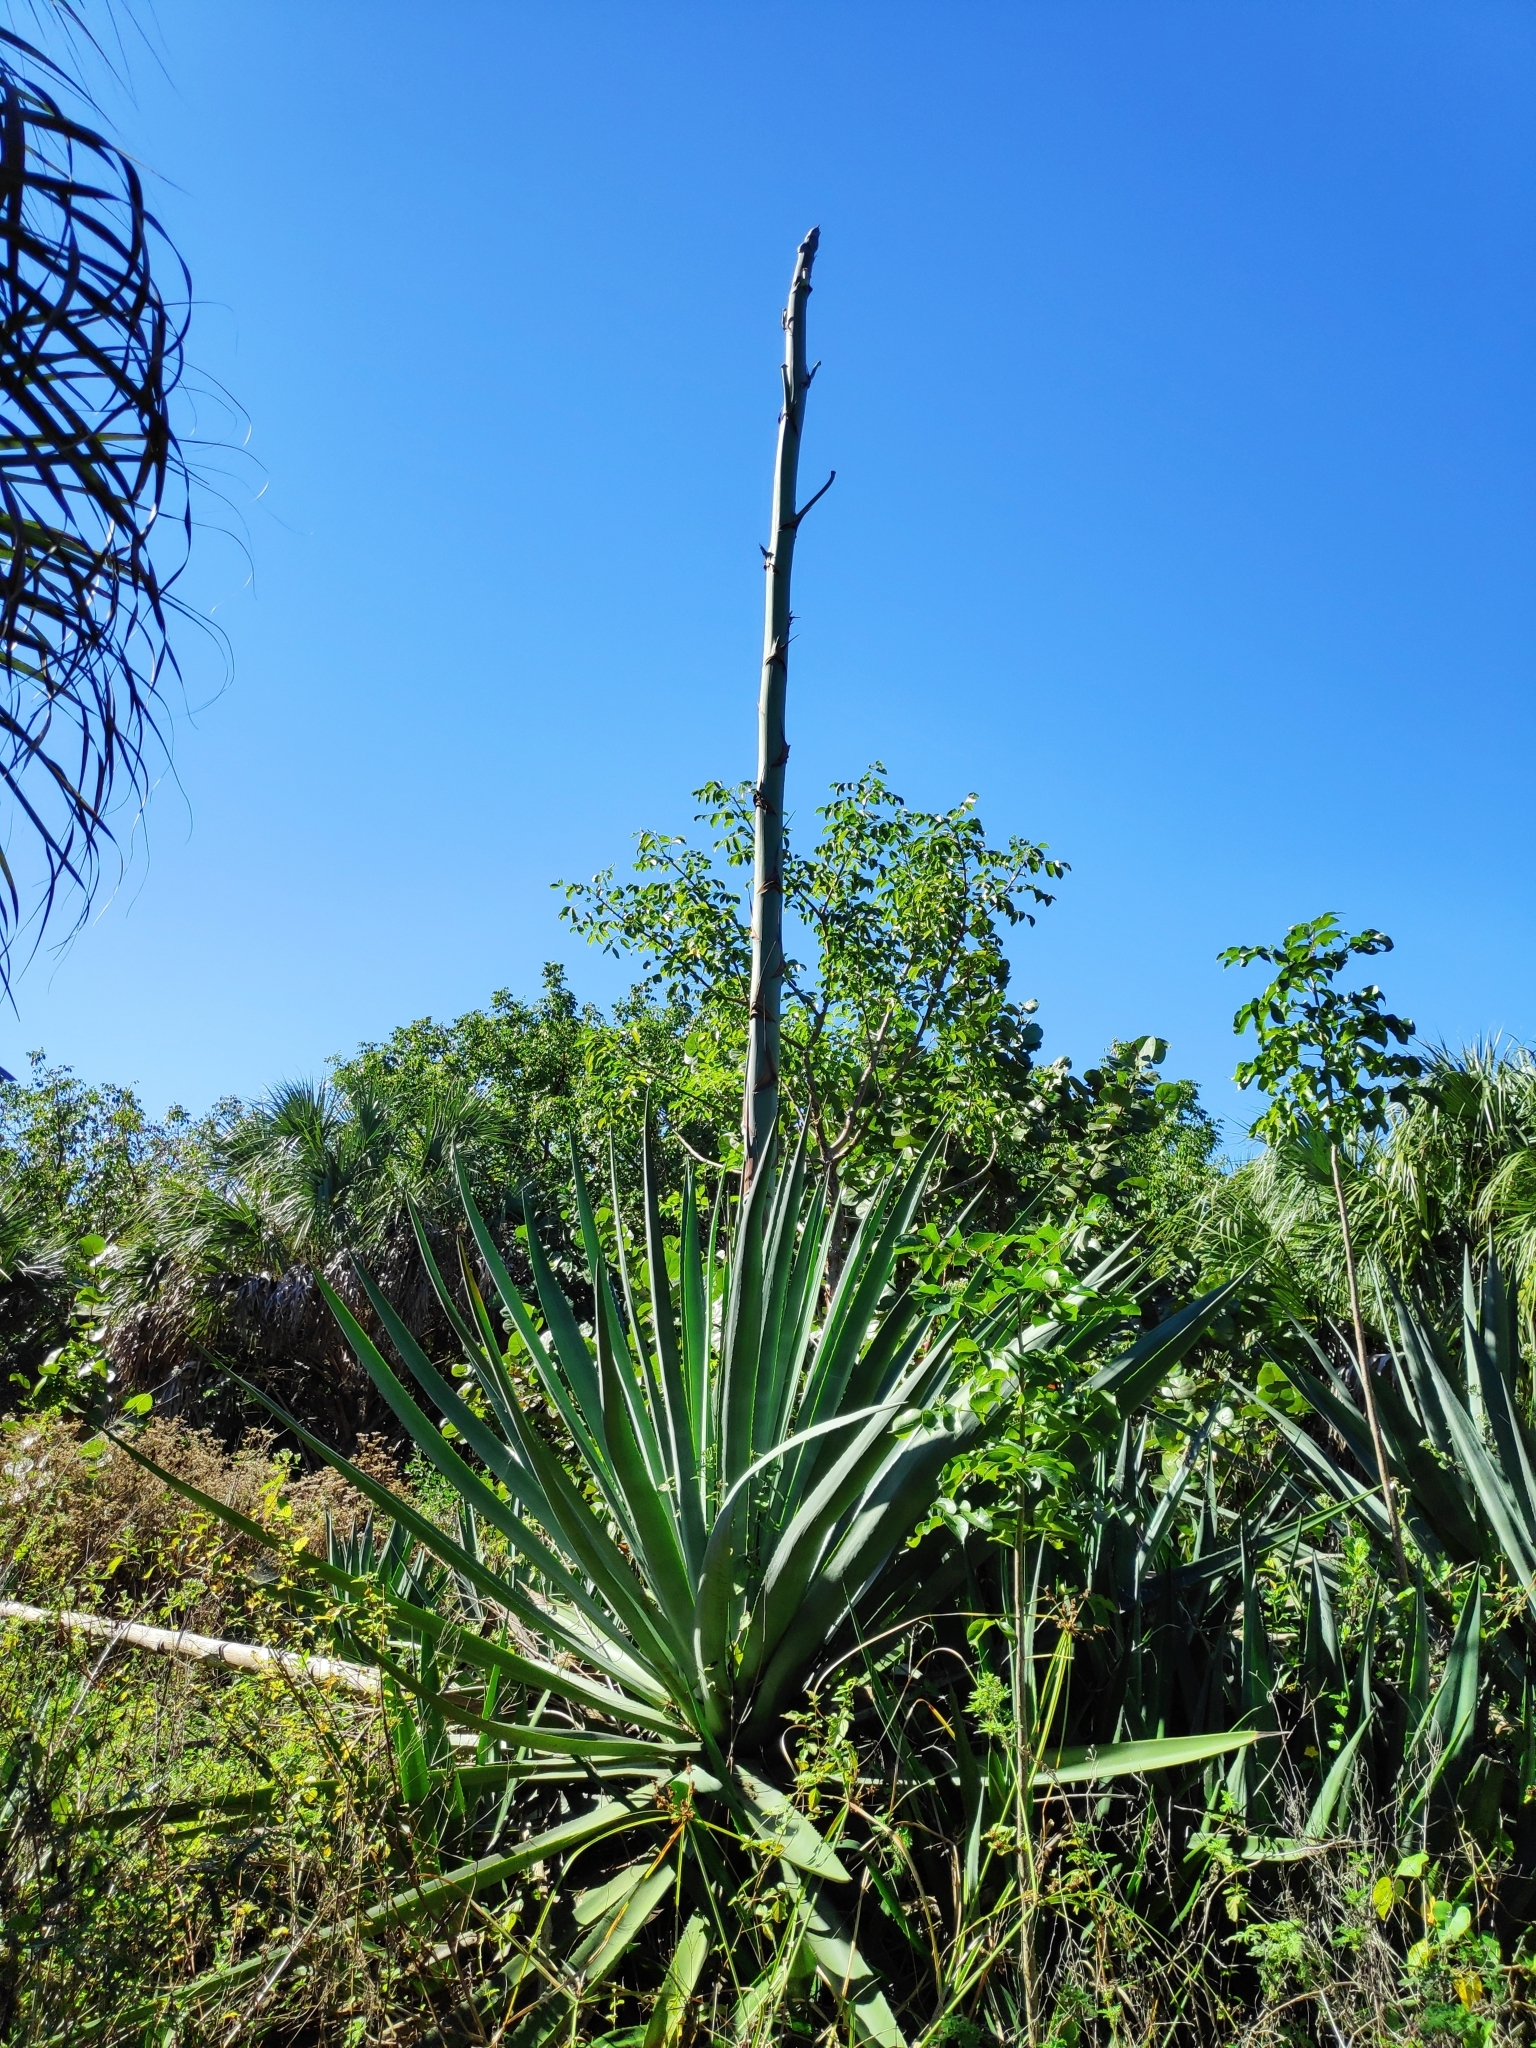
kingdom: Plantae
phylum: Tracheophyta
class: Liliopsida
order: Asparagales
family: Asparagaceae
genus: Agave
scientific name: Agave americana
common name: Centuryplant
